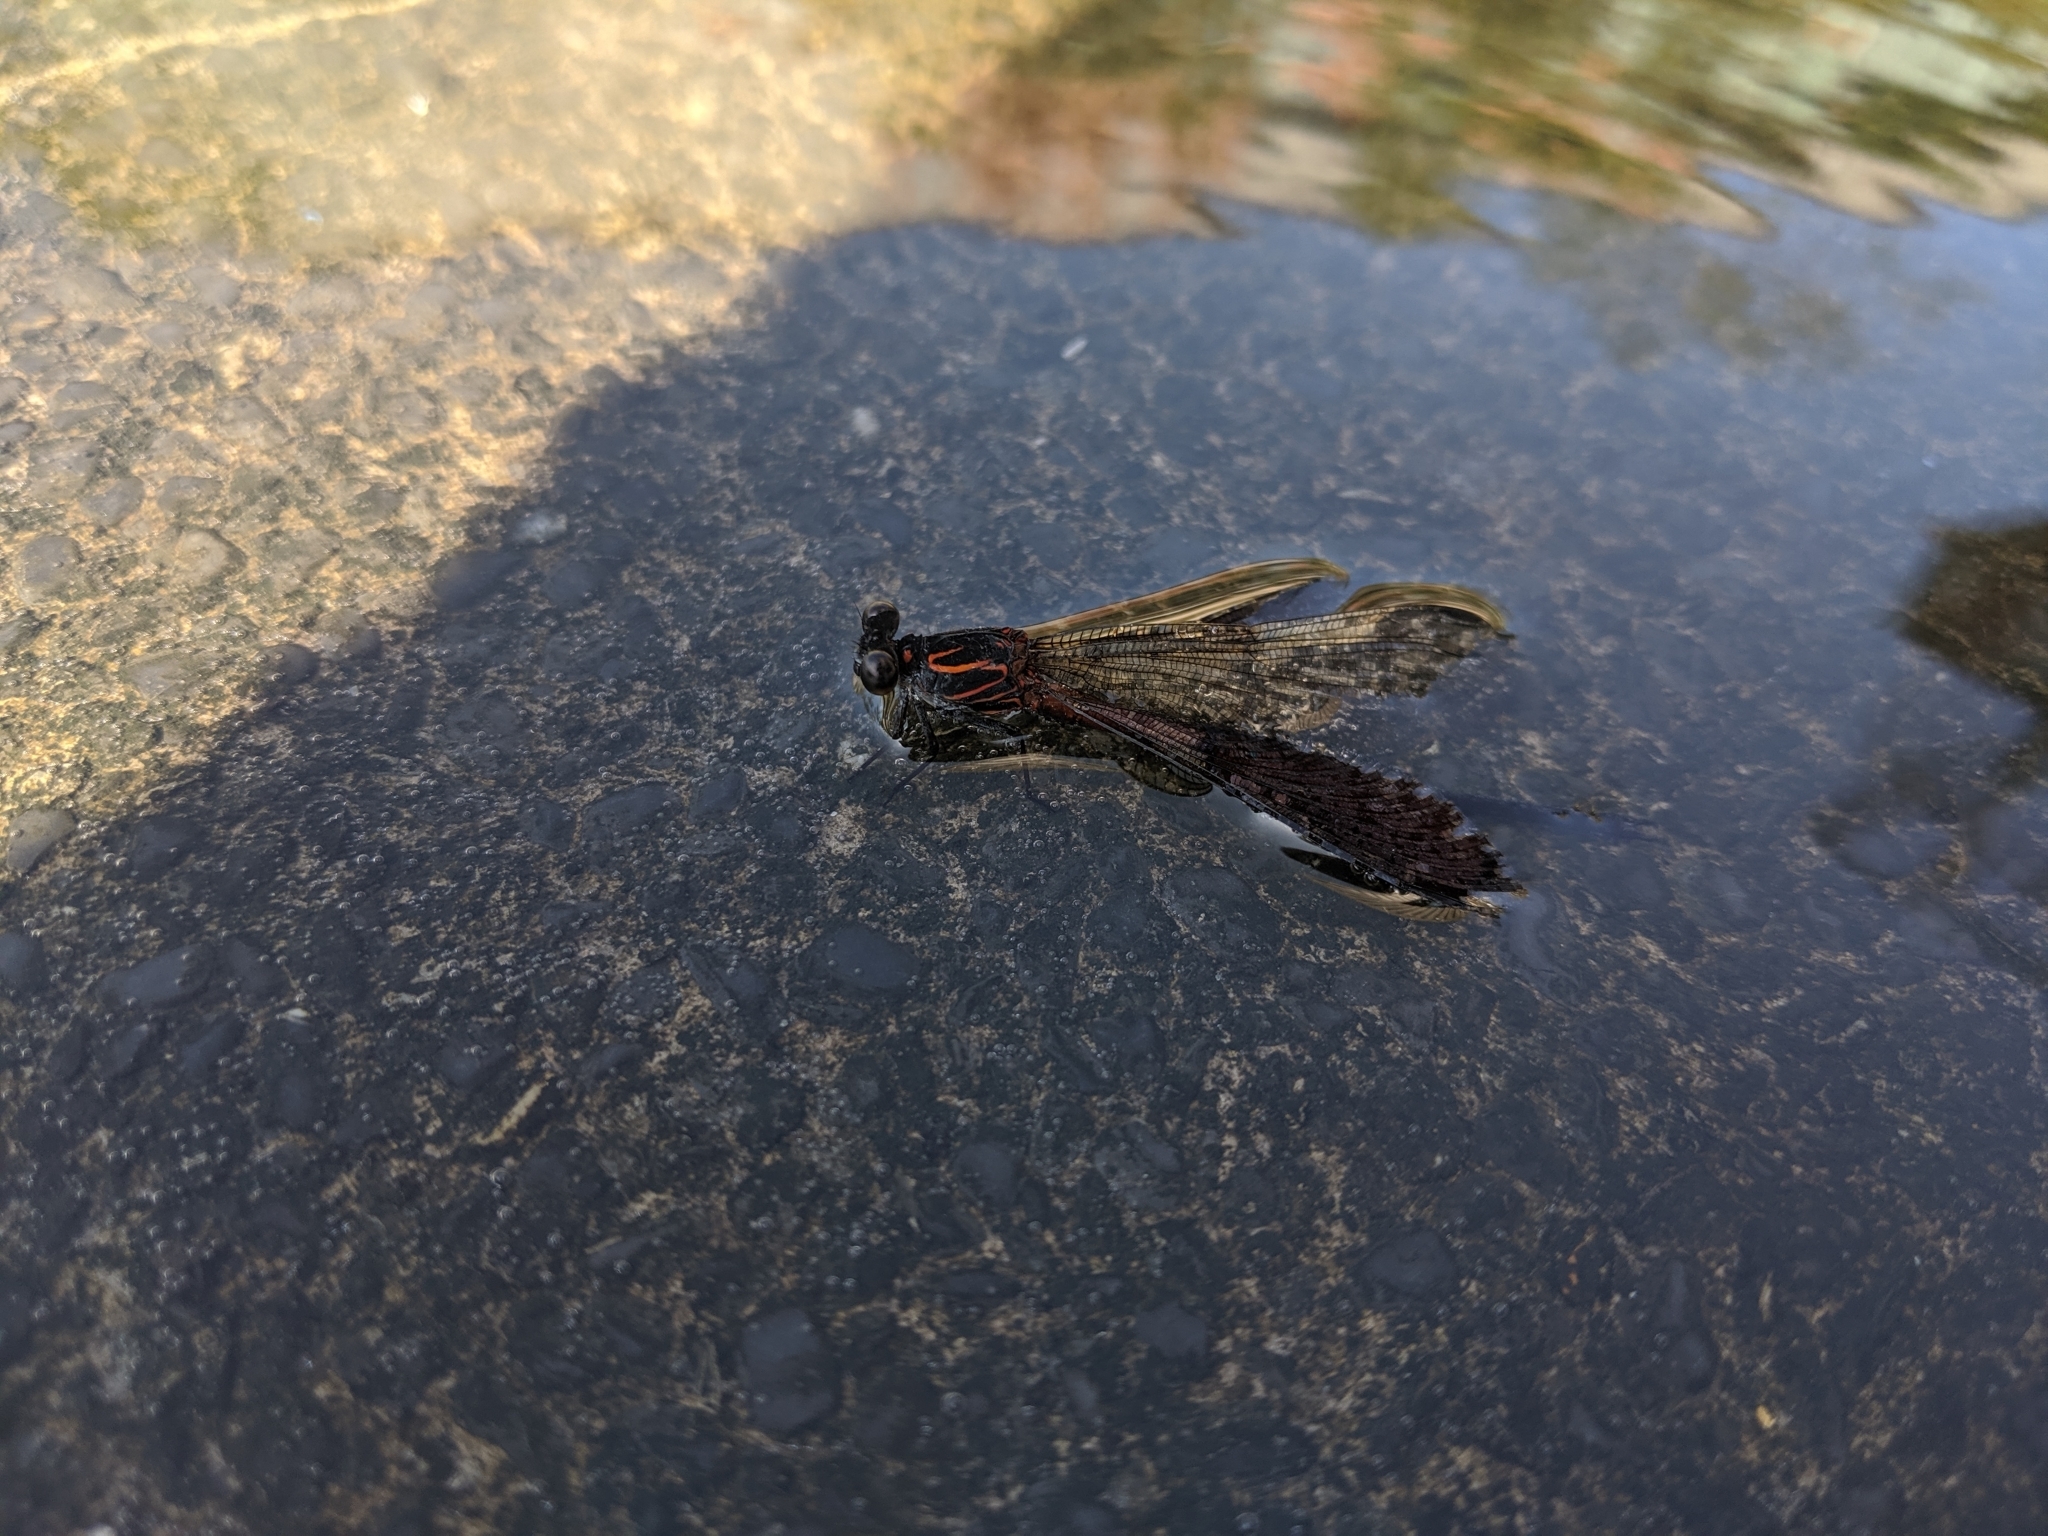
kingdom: Animalia
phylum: Arthropoda
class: Insecta
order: Odonata
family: Euphaeidae
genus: Euphaea
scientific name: Euphaea formosa
